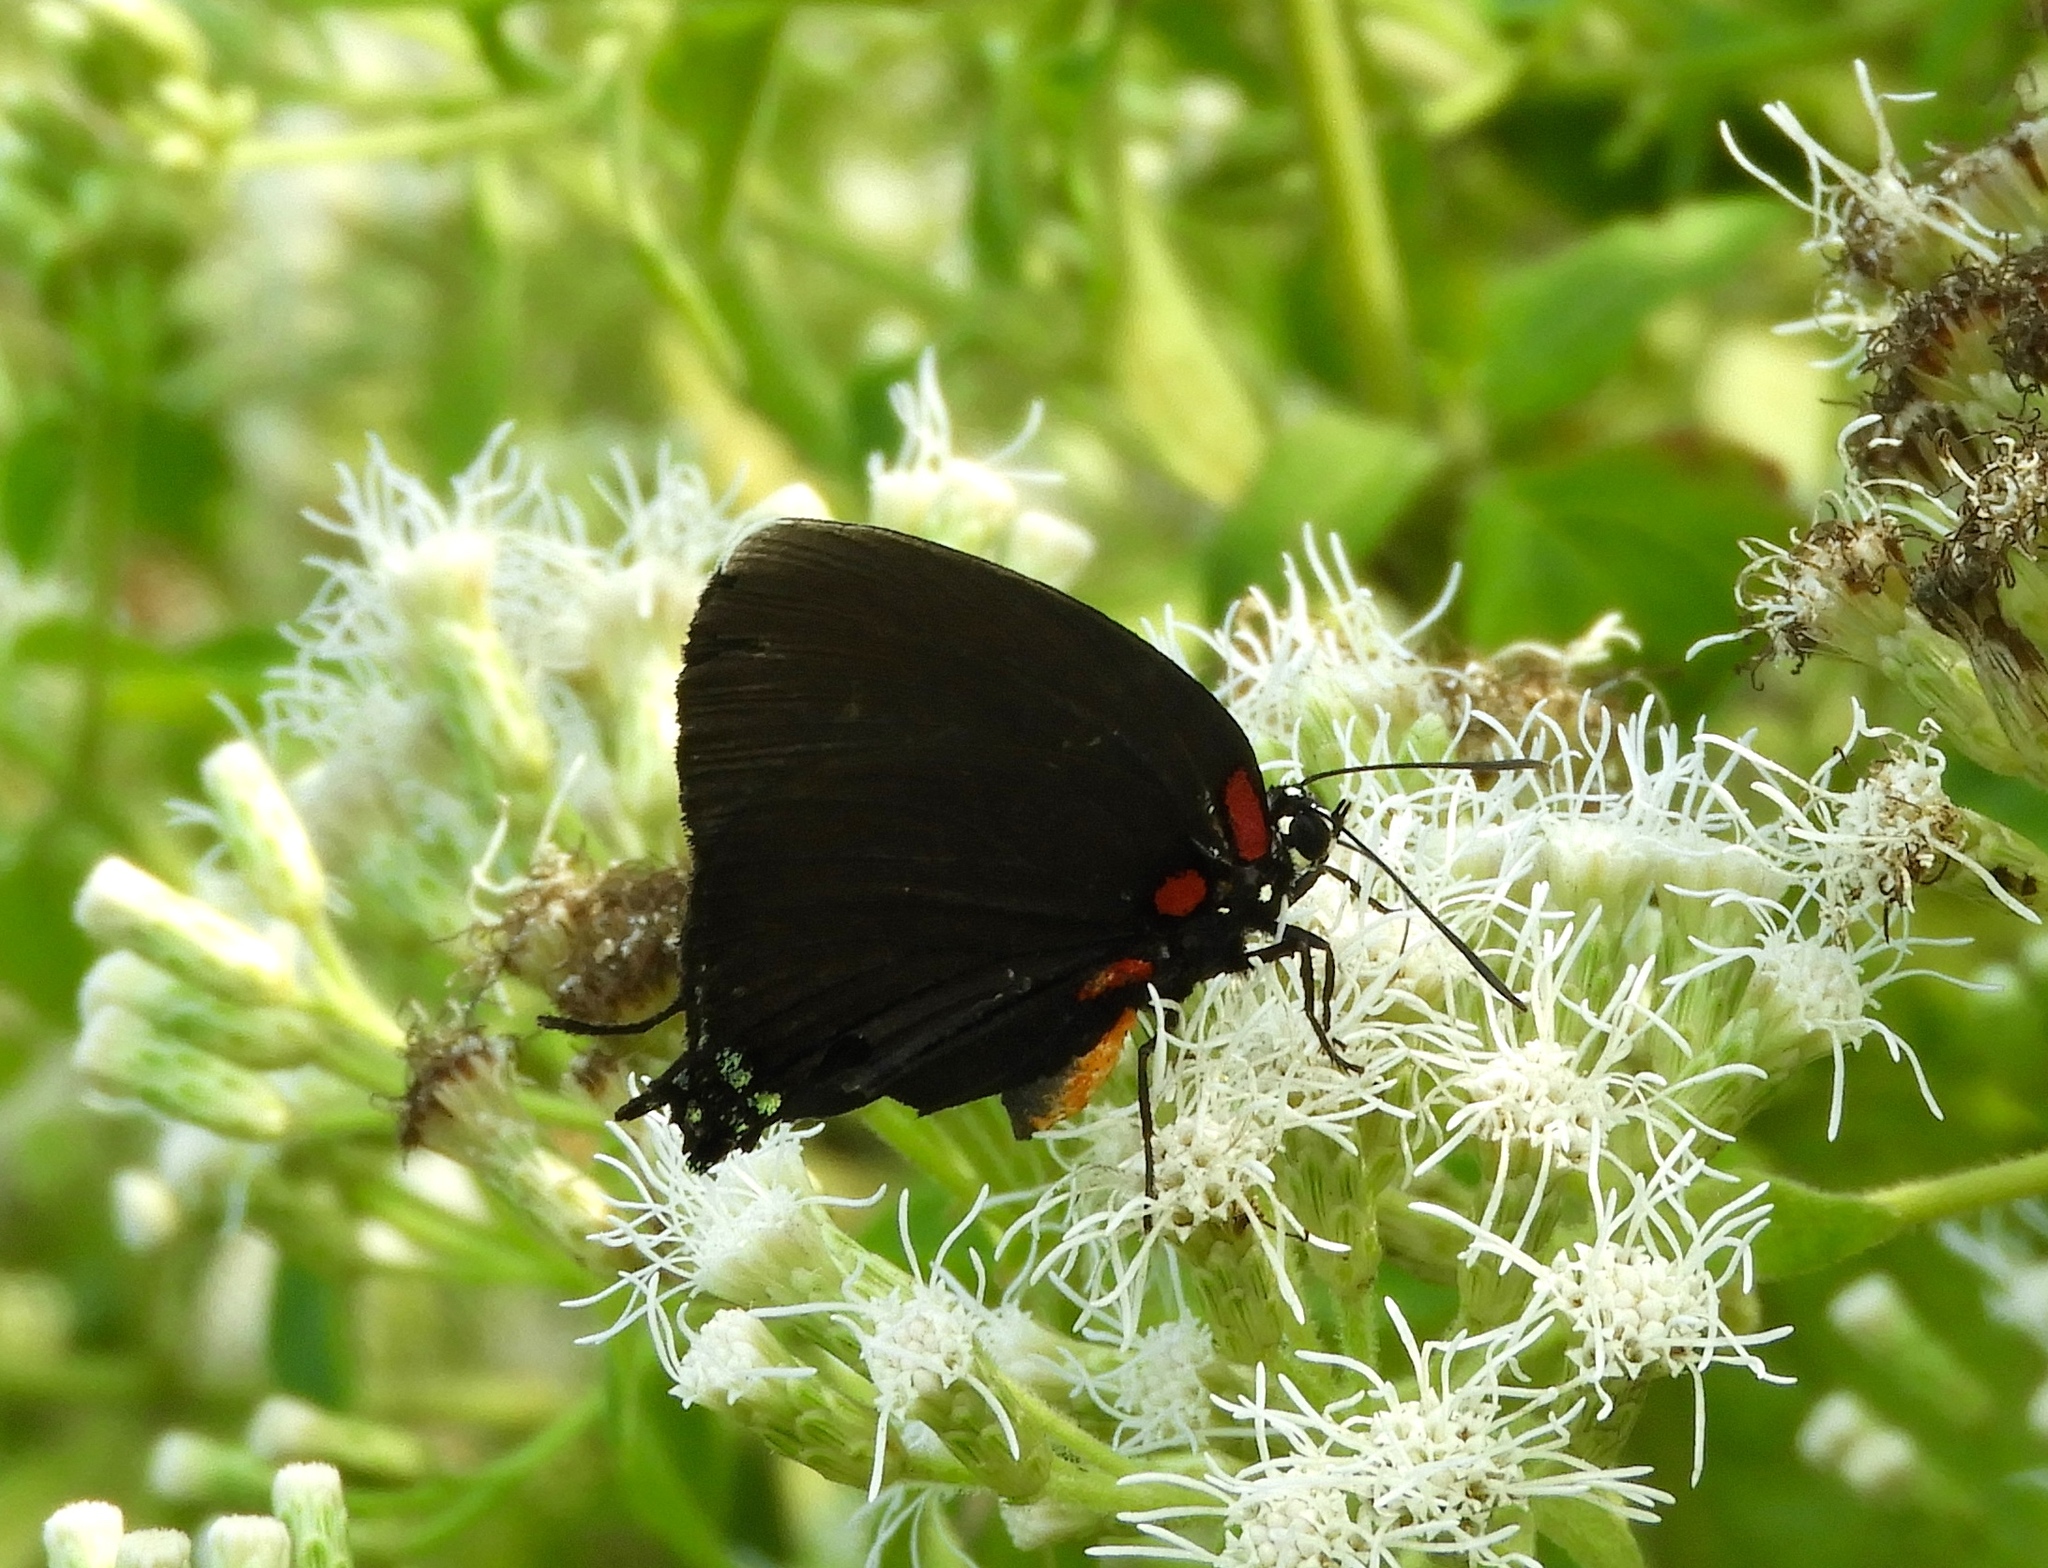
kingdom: Animalia
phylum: Arthropoda
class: Insecta
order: Lepidoptera
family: Lycaenidae
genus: Atlides
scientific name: Atlides
